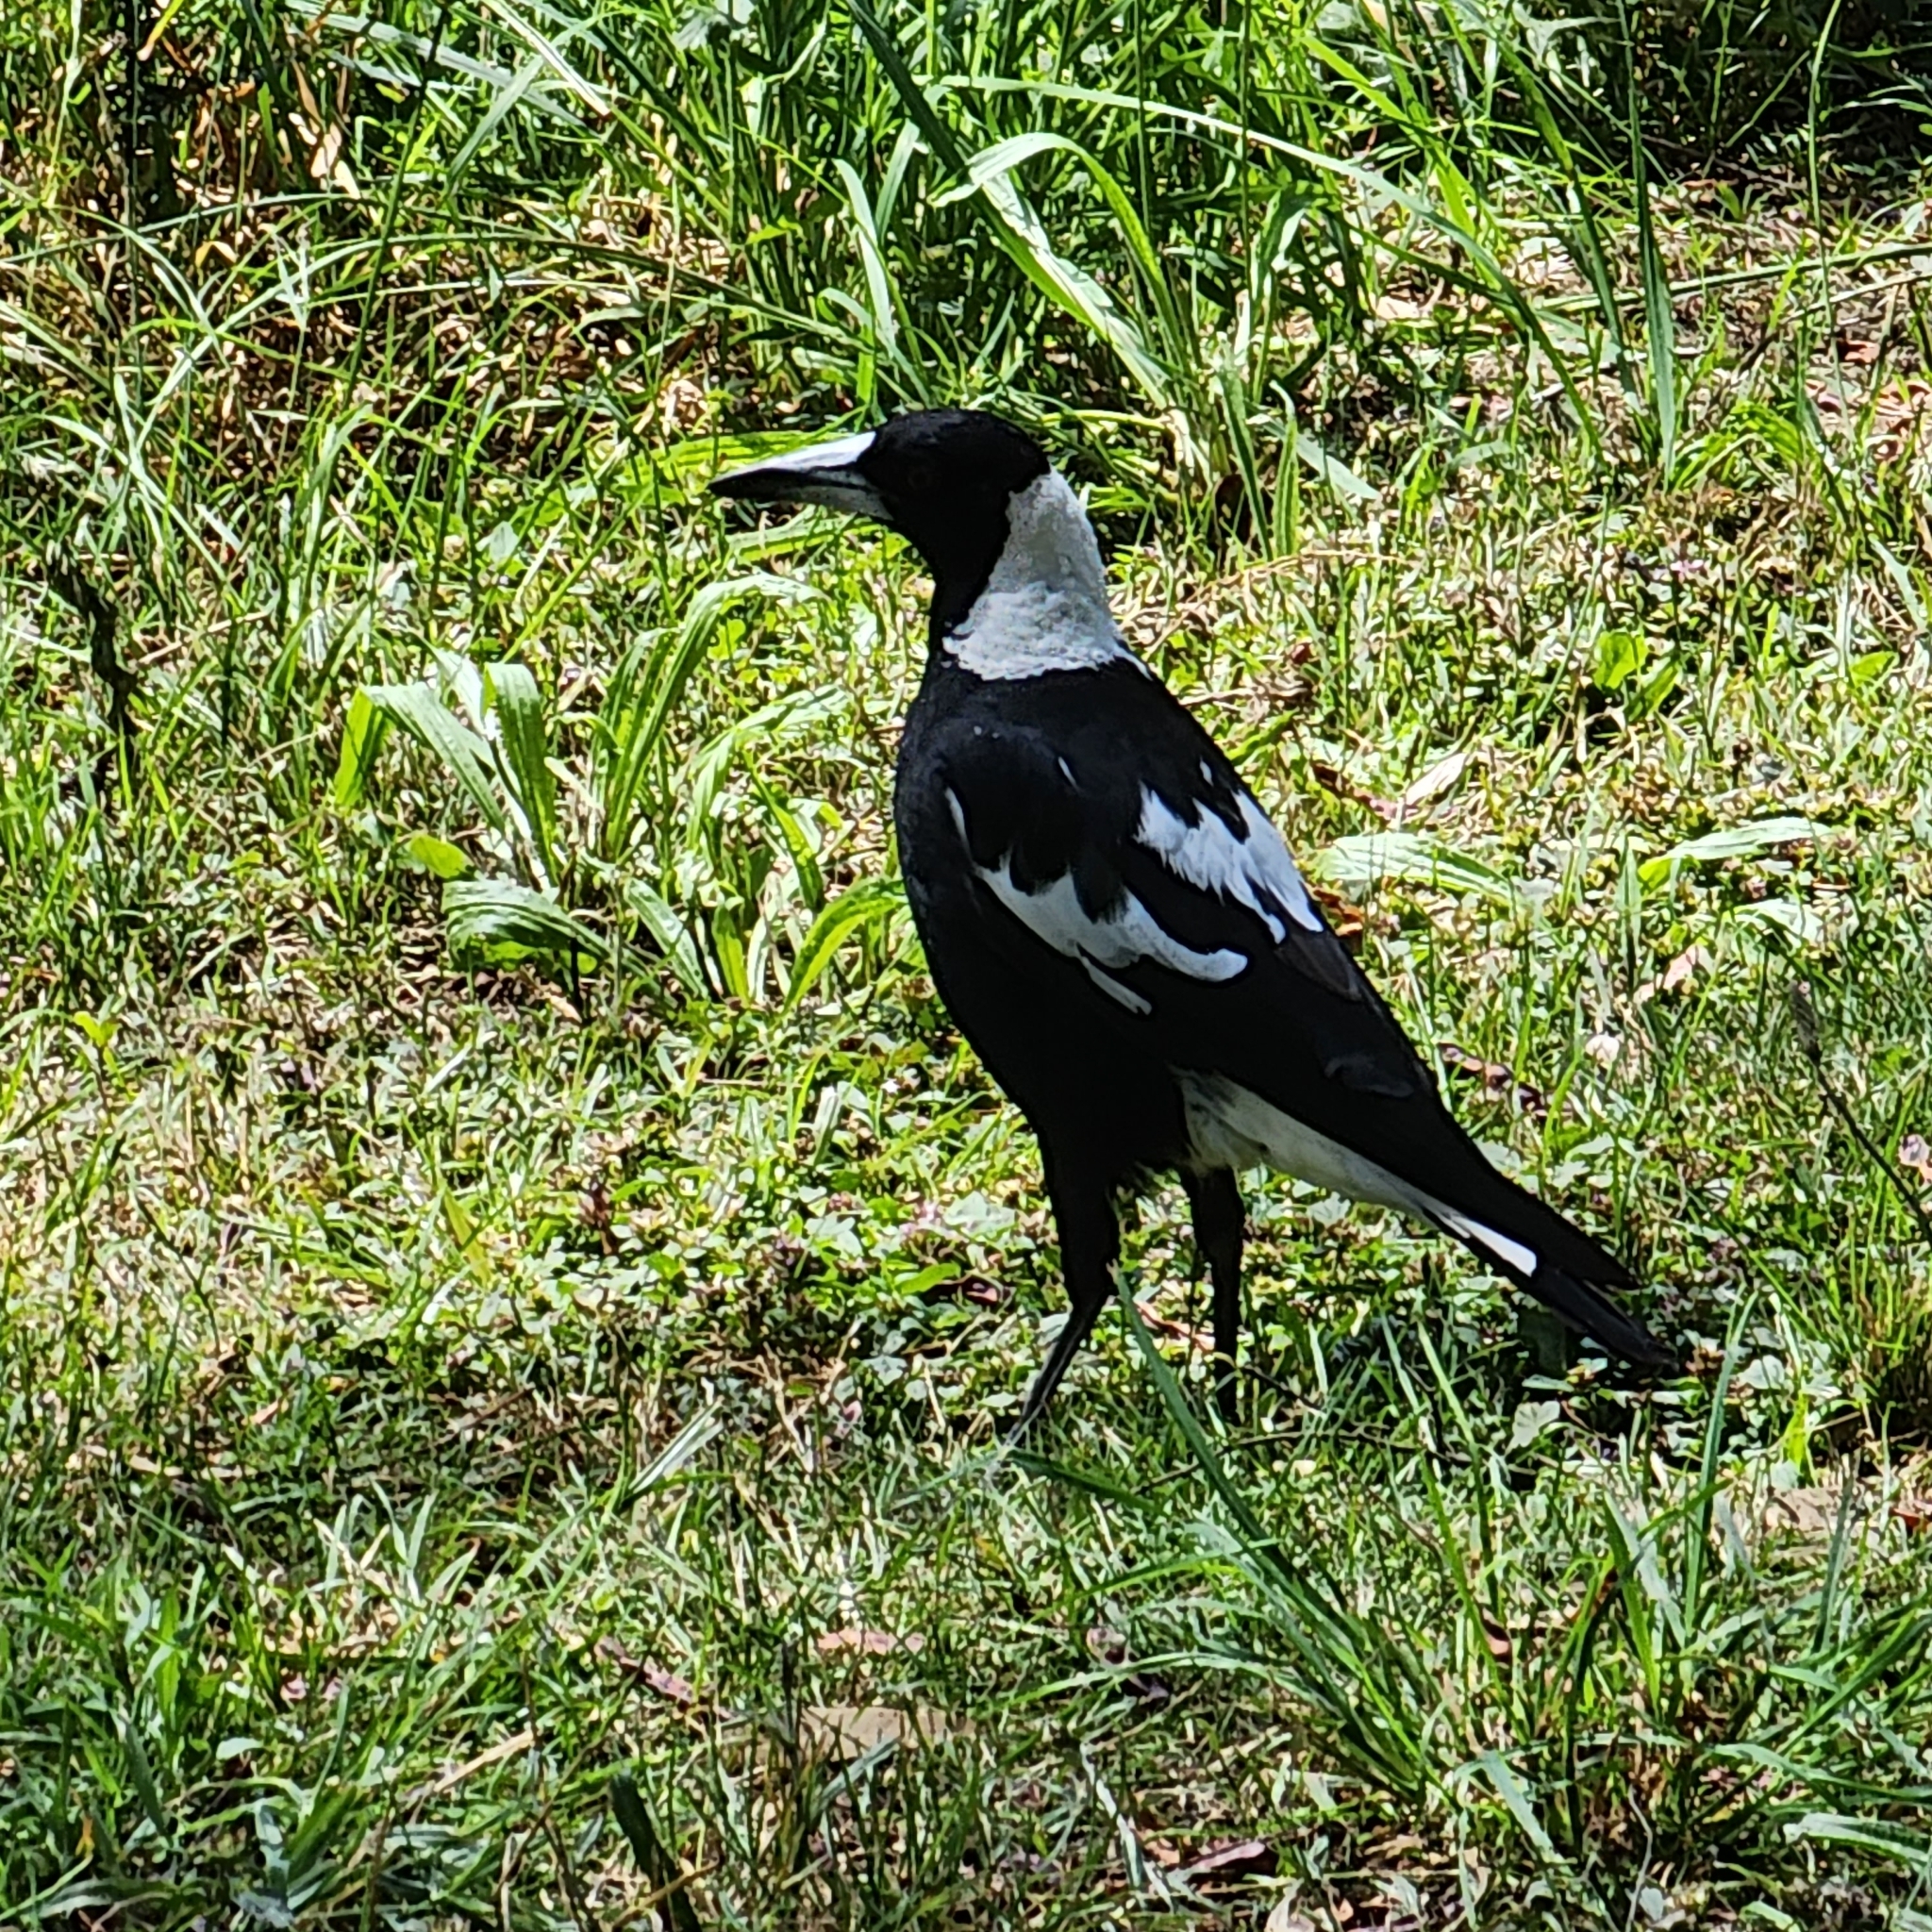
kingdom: Animalia
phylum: Chordata
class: Aves
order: Passeriformes
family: Cracticidae
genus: Gymnorhina
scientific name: Gymnorhina tibicen
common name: Australian magpie
